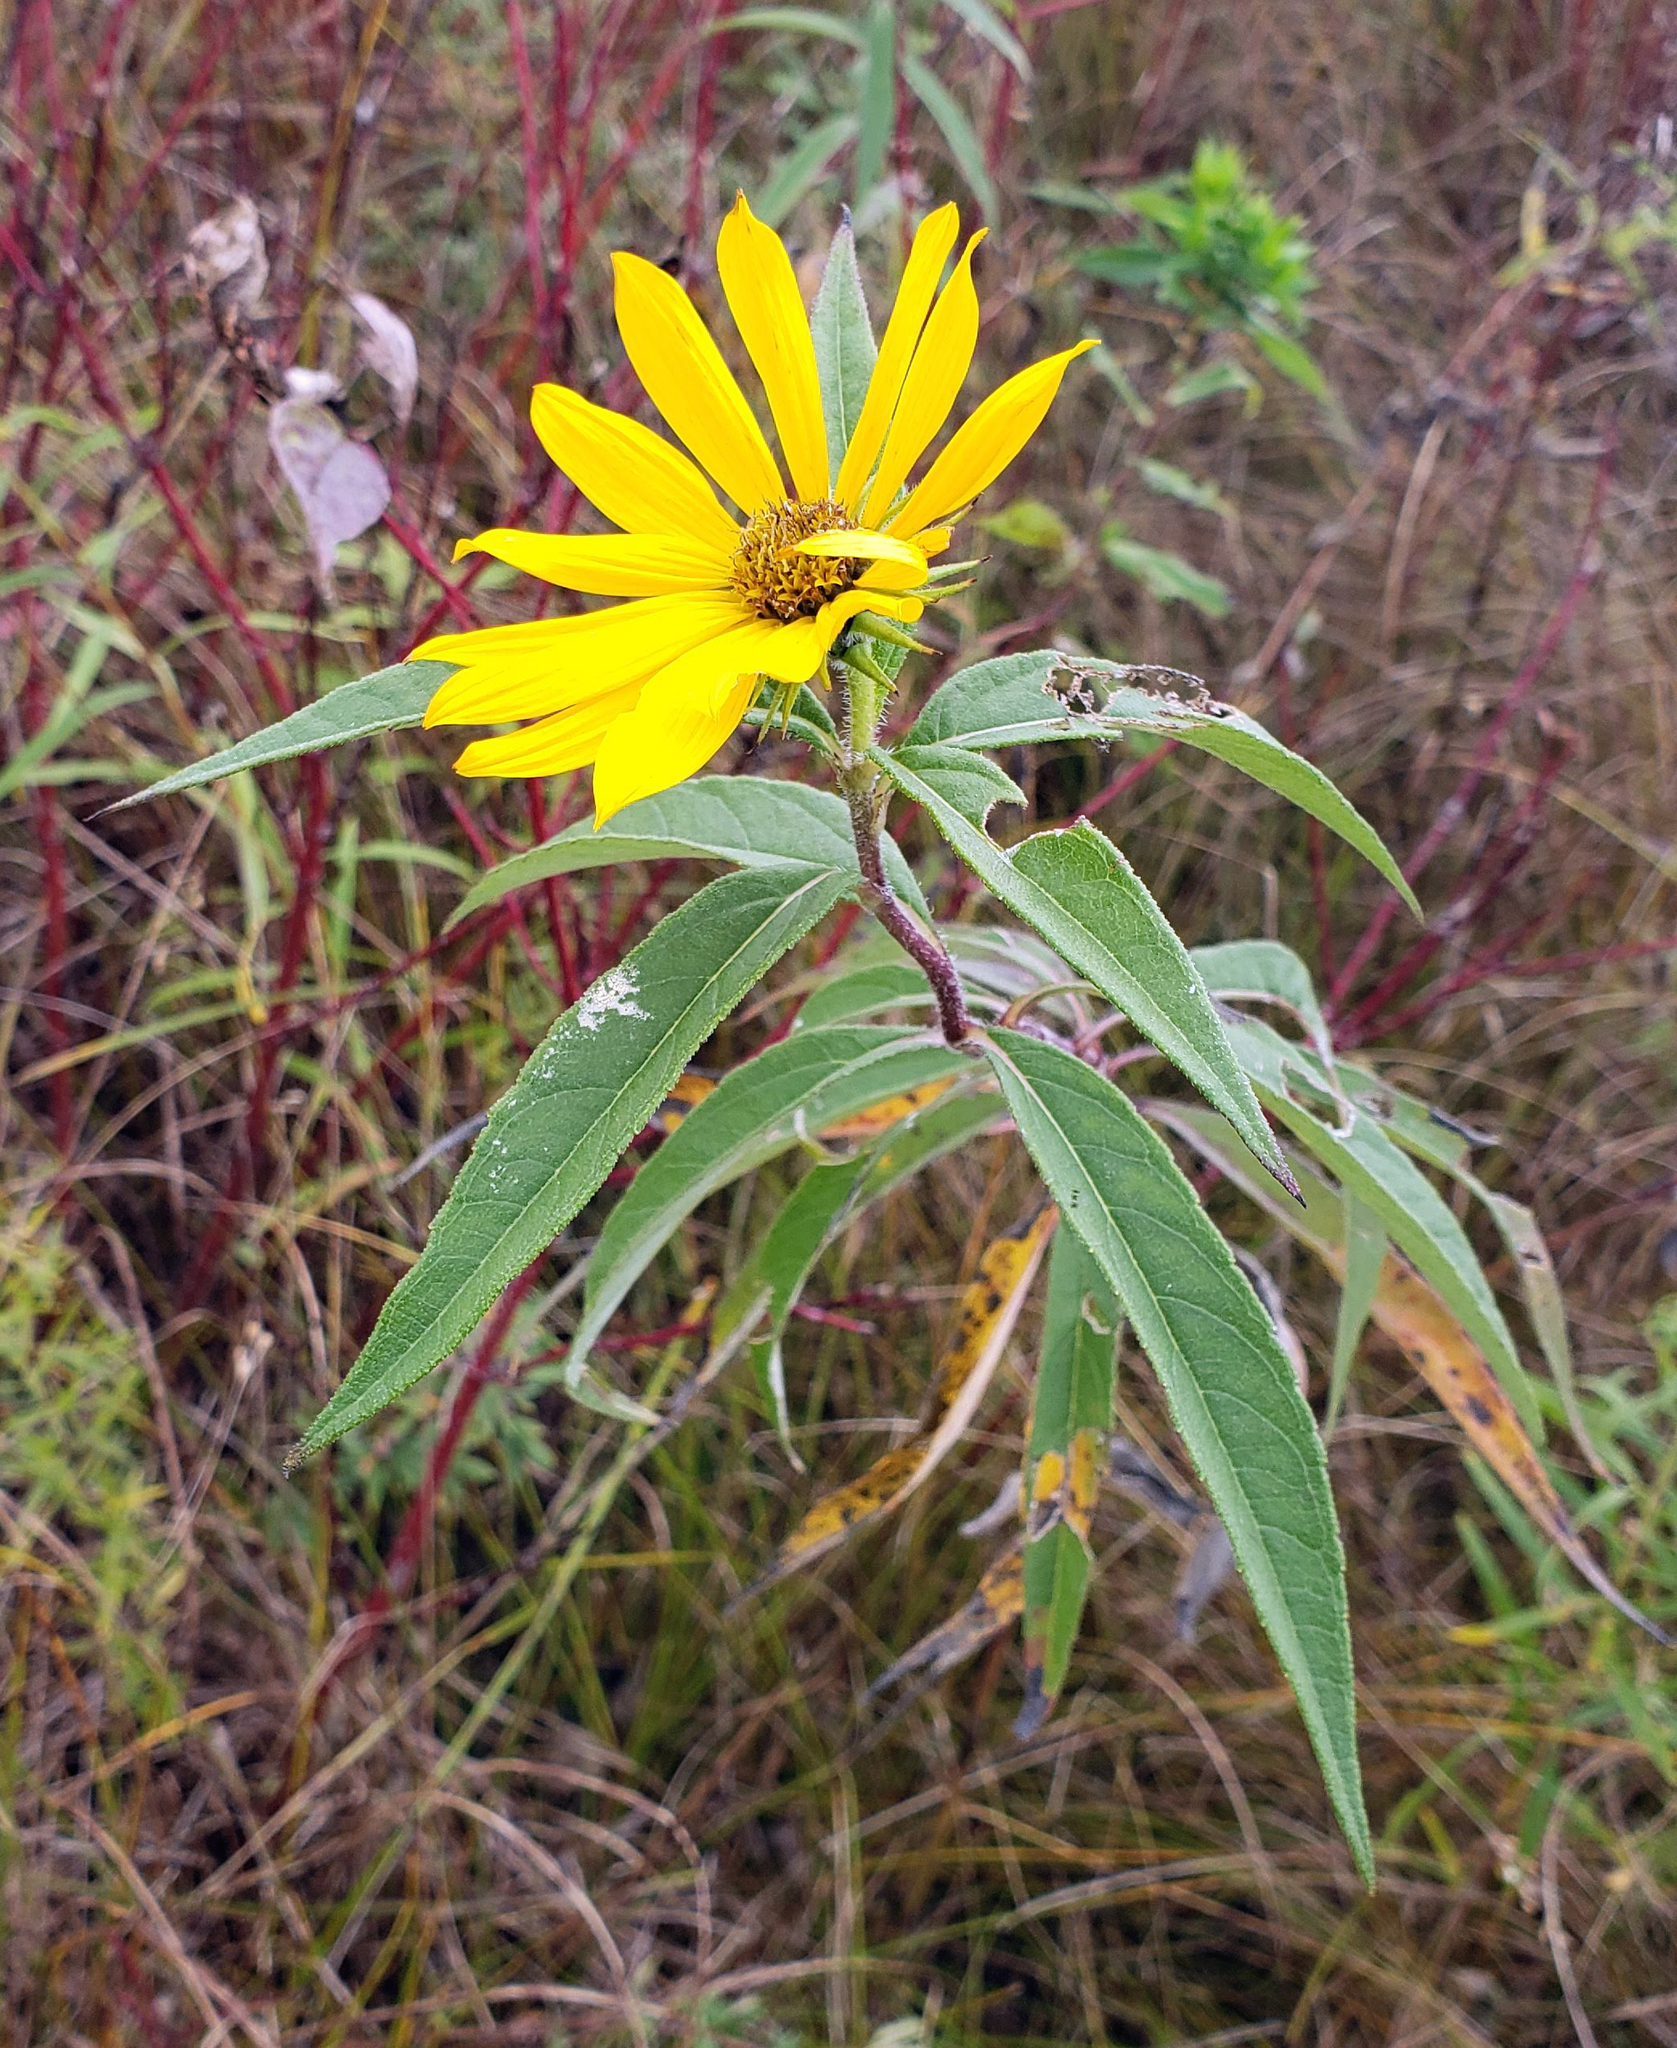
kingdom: Plantae
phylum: Tracheophyta
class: Magnoliopsida
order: Asterales
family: Asteraceae
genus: Helianthus
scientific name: Helianthus giganteus
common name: Giant sunflower
